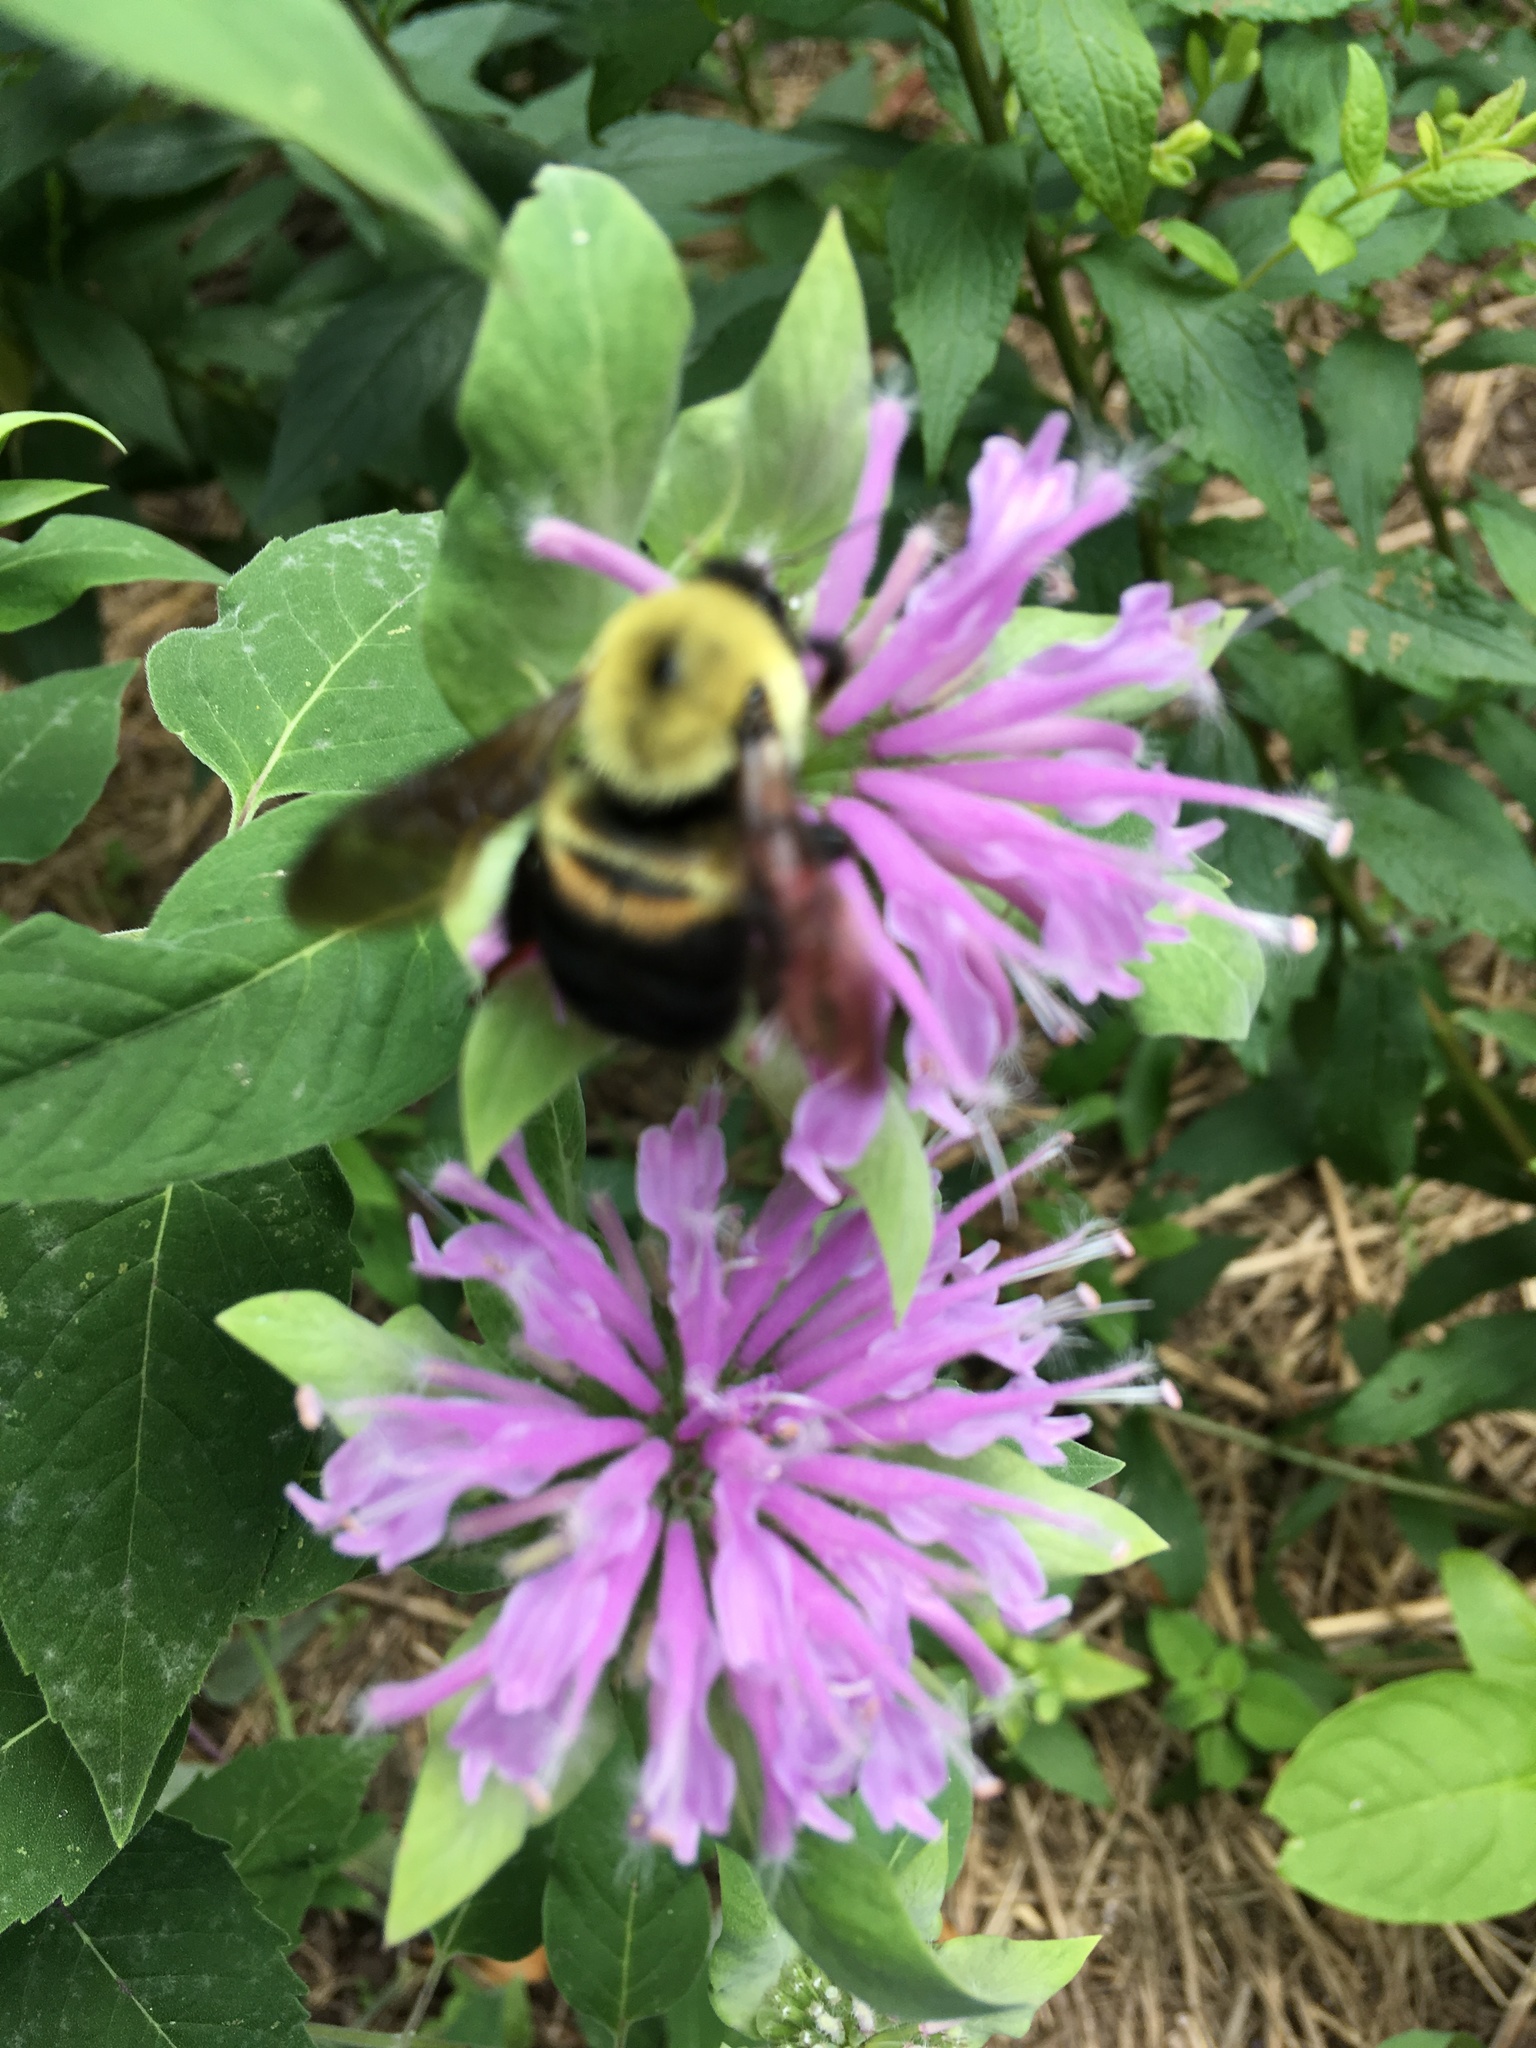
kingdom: Animalia
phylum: Arthropoda
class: Insecta
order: Hymenoptera
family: Apidae
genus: Bombus
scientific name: Bombus griseocollis
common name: Brown-belted bumble bee
